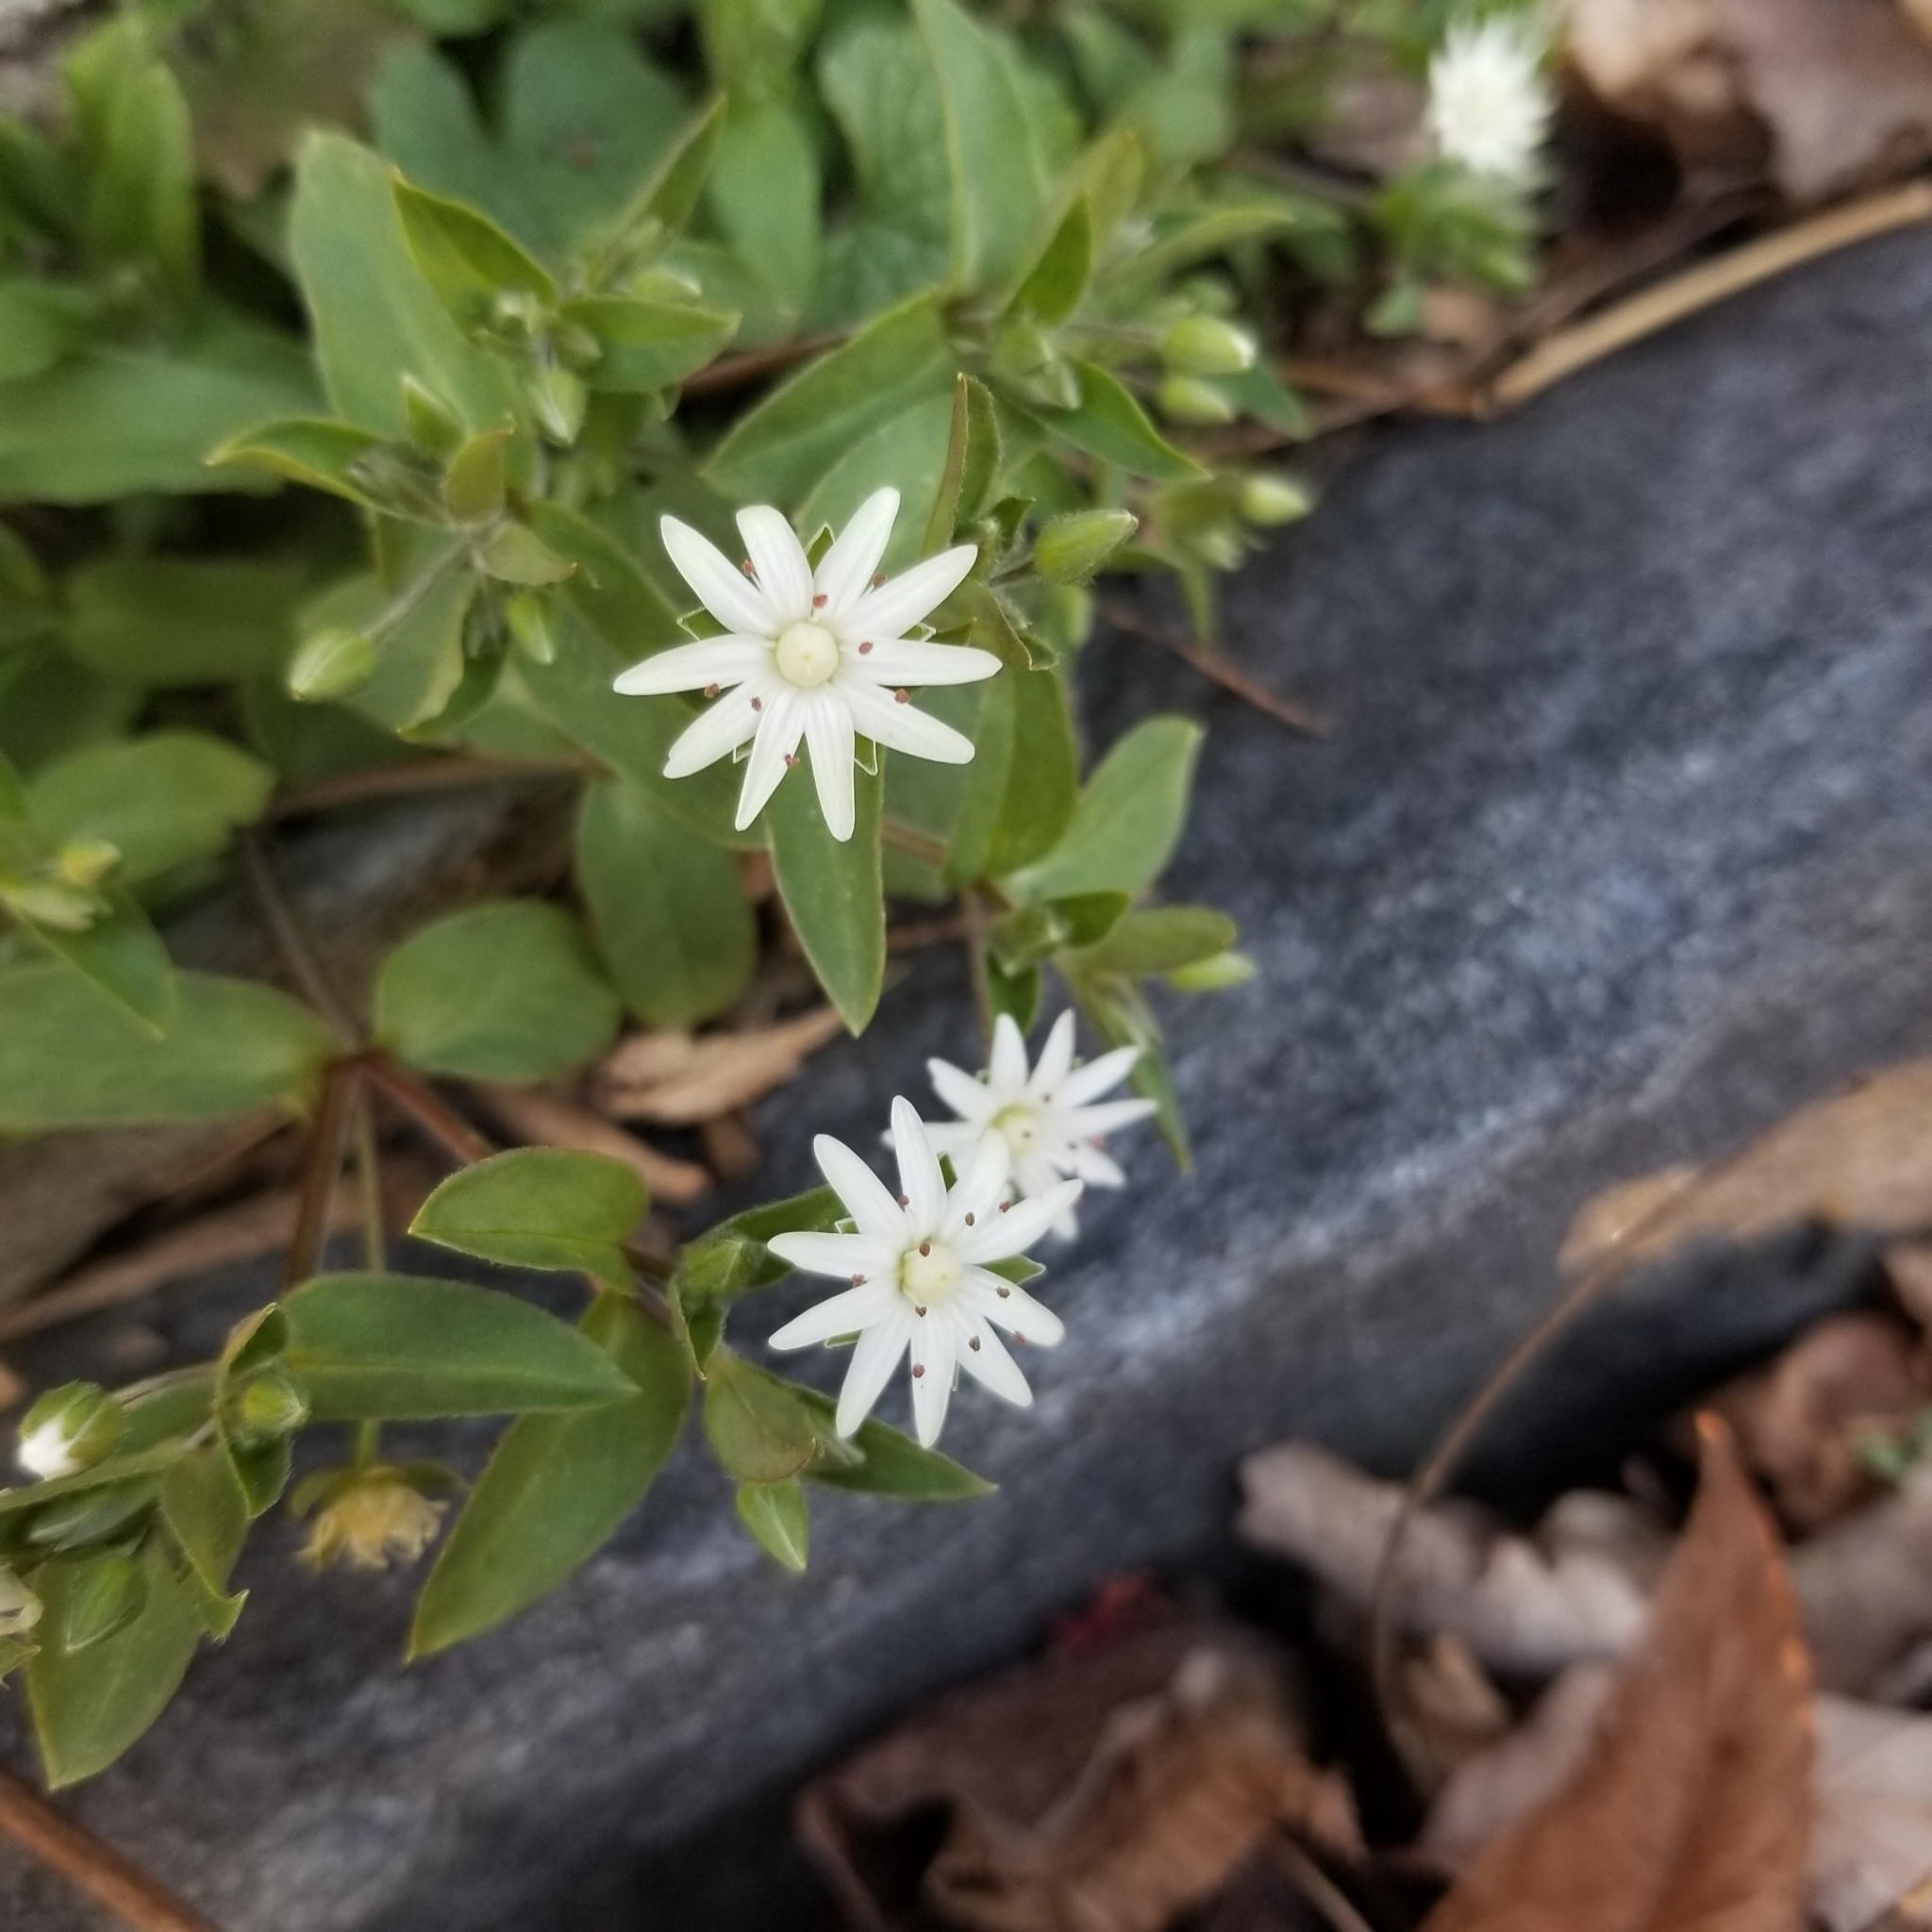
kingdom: Plantae
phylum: Tracheophyta
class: Magnoliopsida
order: Caryophyllales
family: Caryophyllaceae
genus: Stellaria
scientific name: Stellaria pubera
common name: Star chickweed
